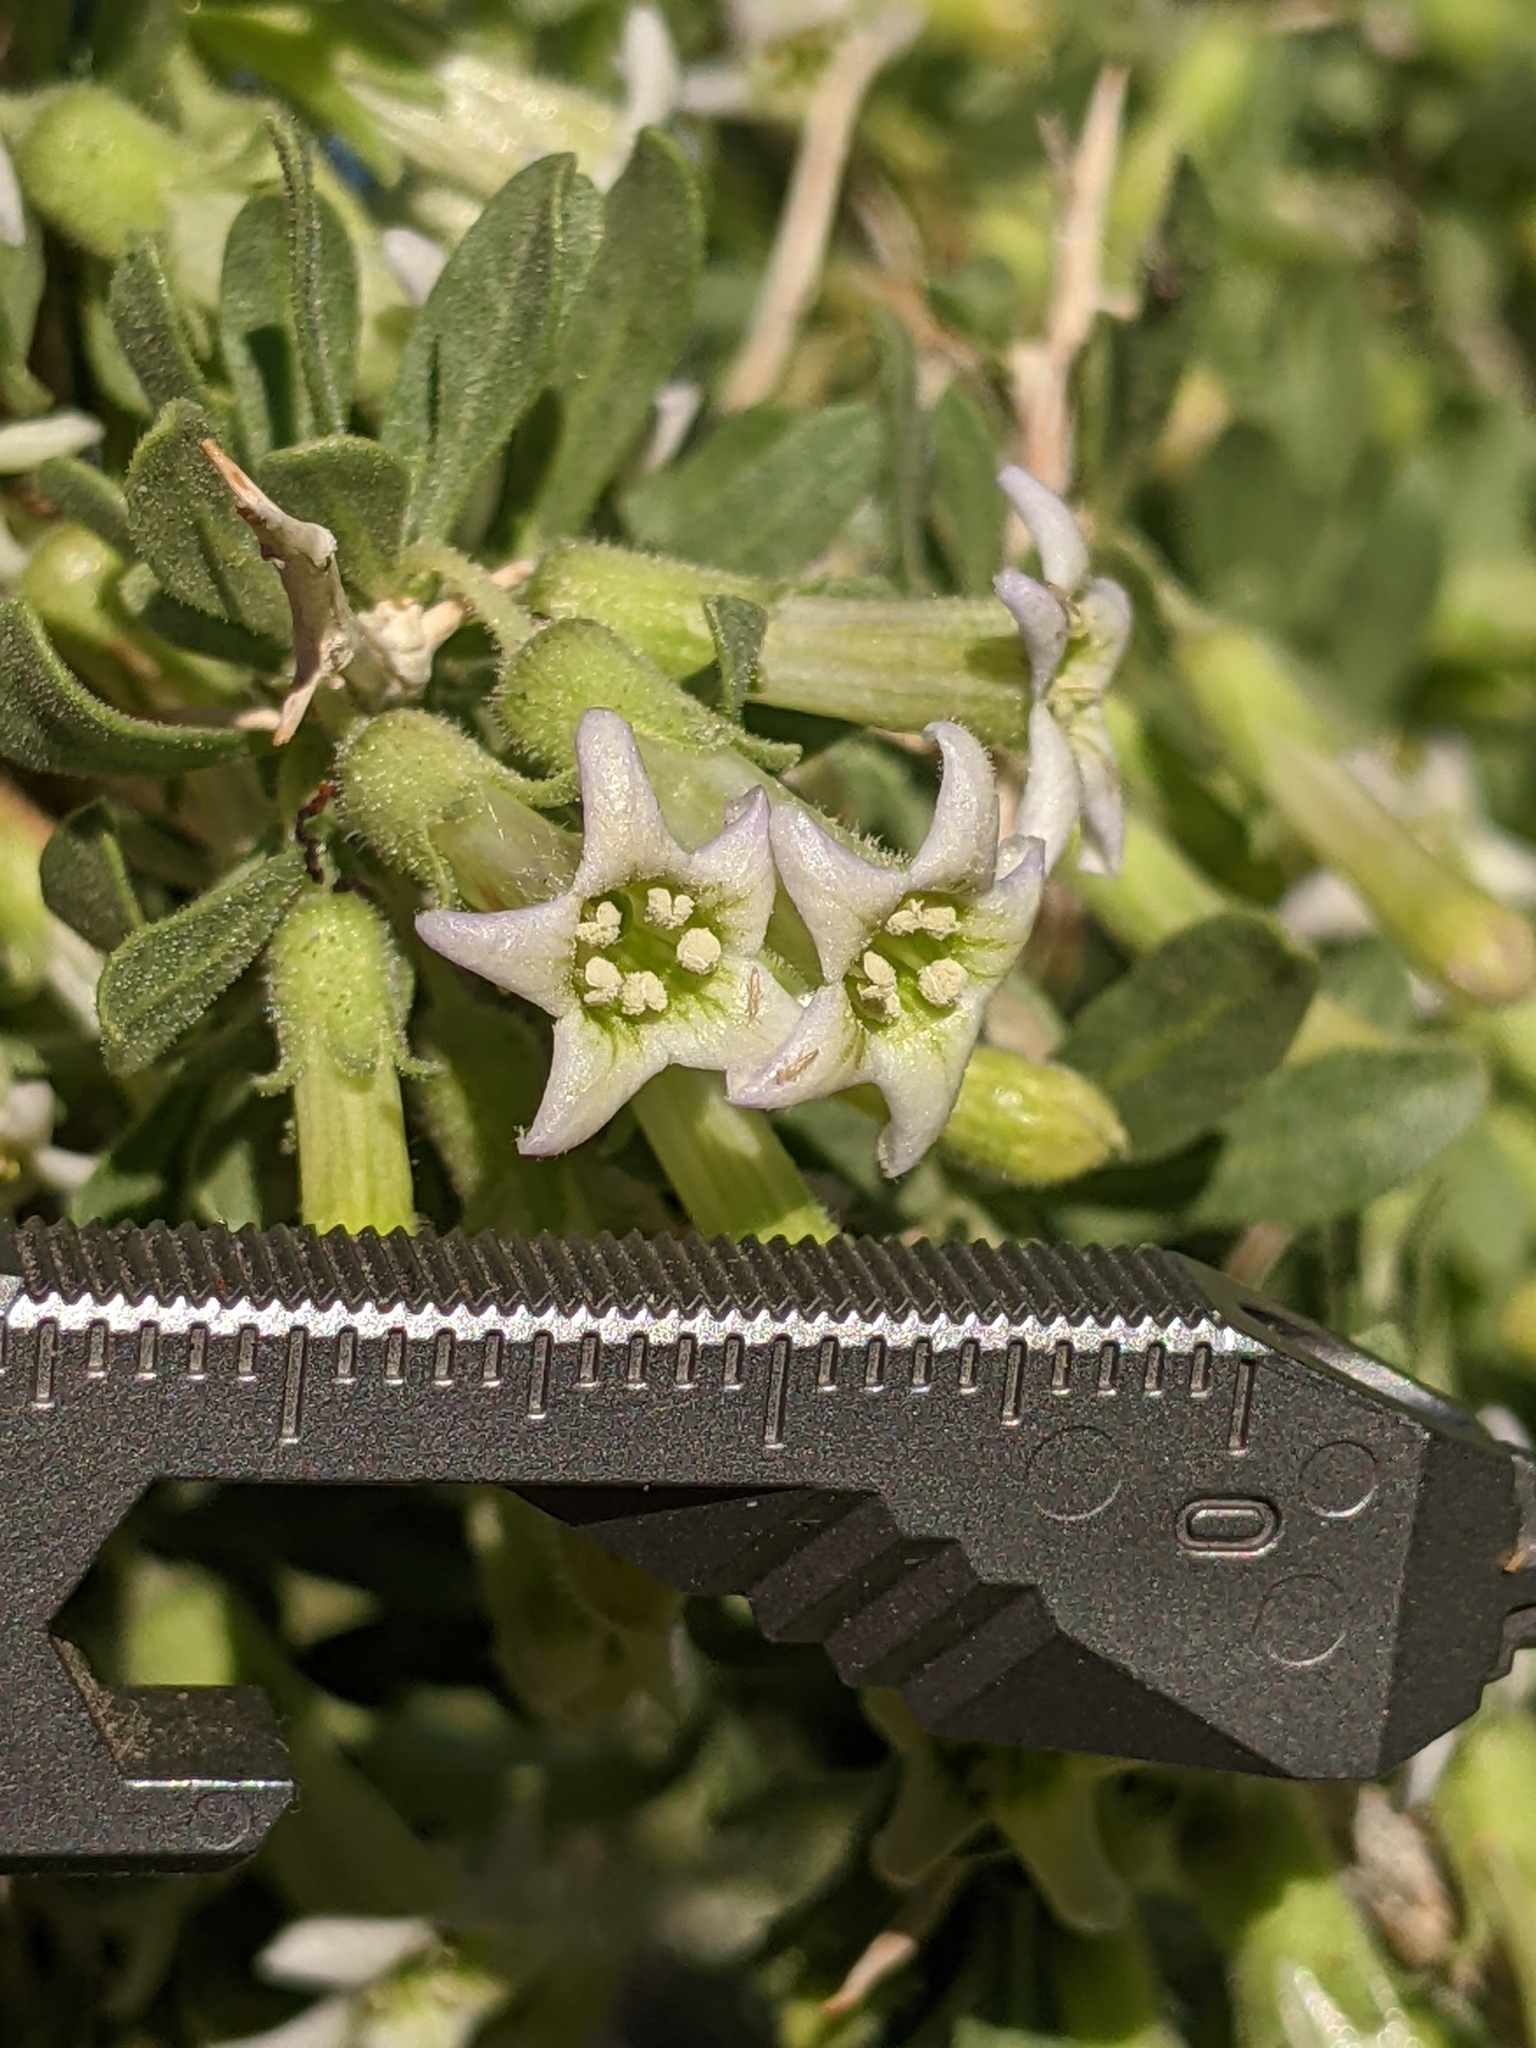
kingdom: Plantae
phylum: Tracheophyta
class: Magnoliopsida
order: Solanales
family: Solanaceae
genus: Lycium
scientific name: Lycium cooperi
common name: Peachthorn
